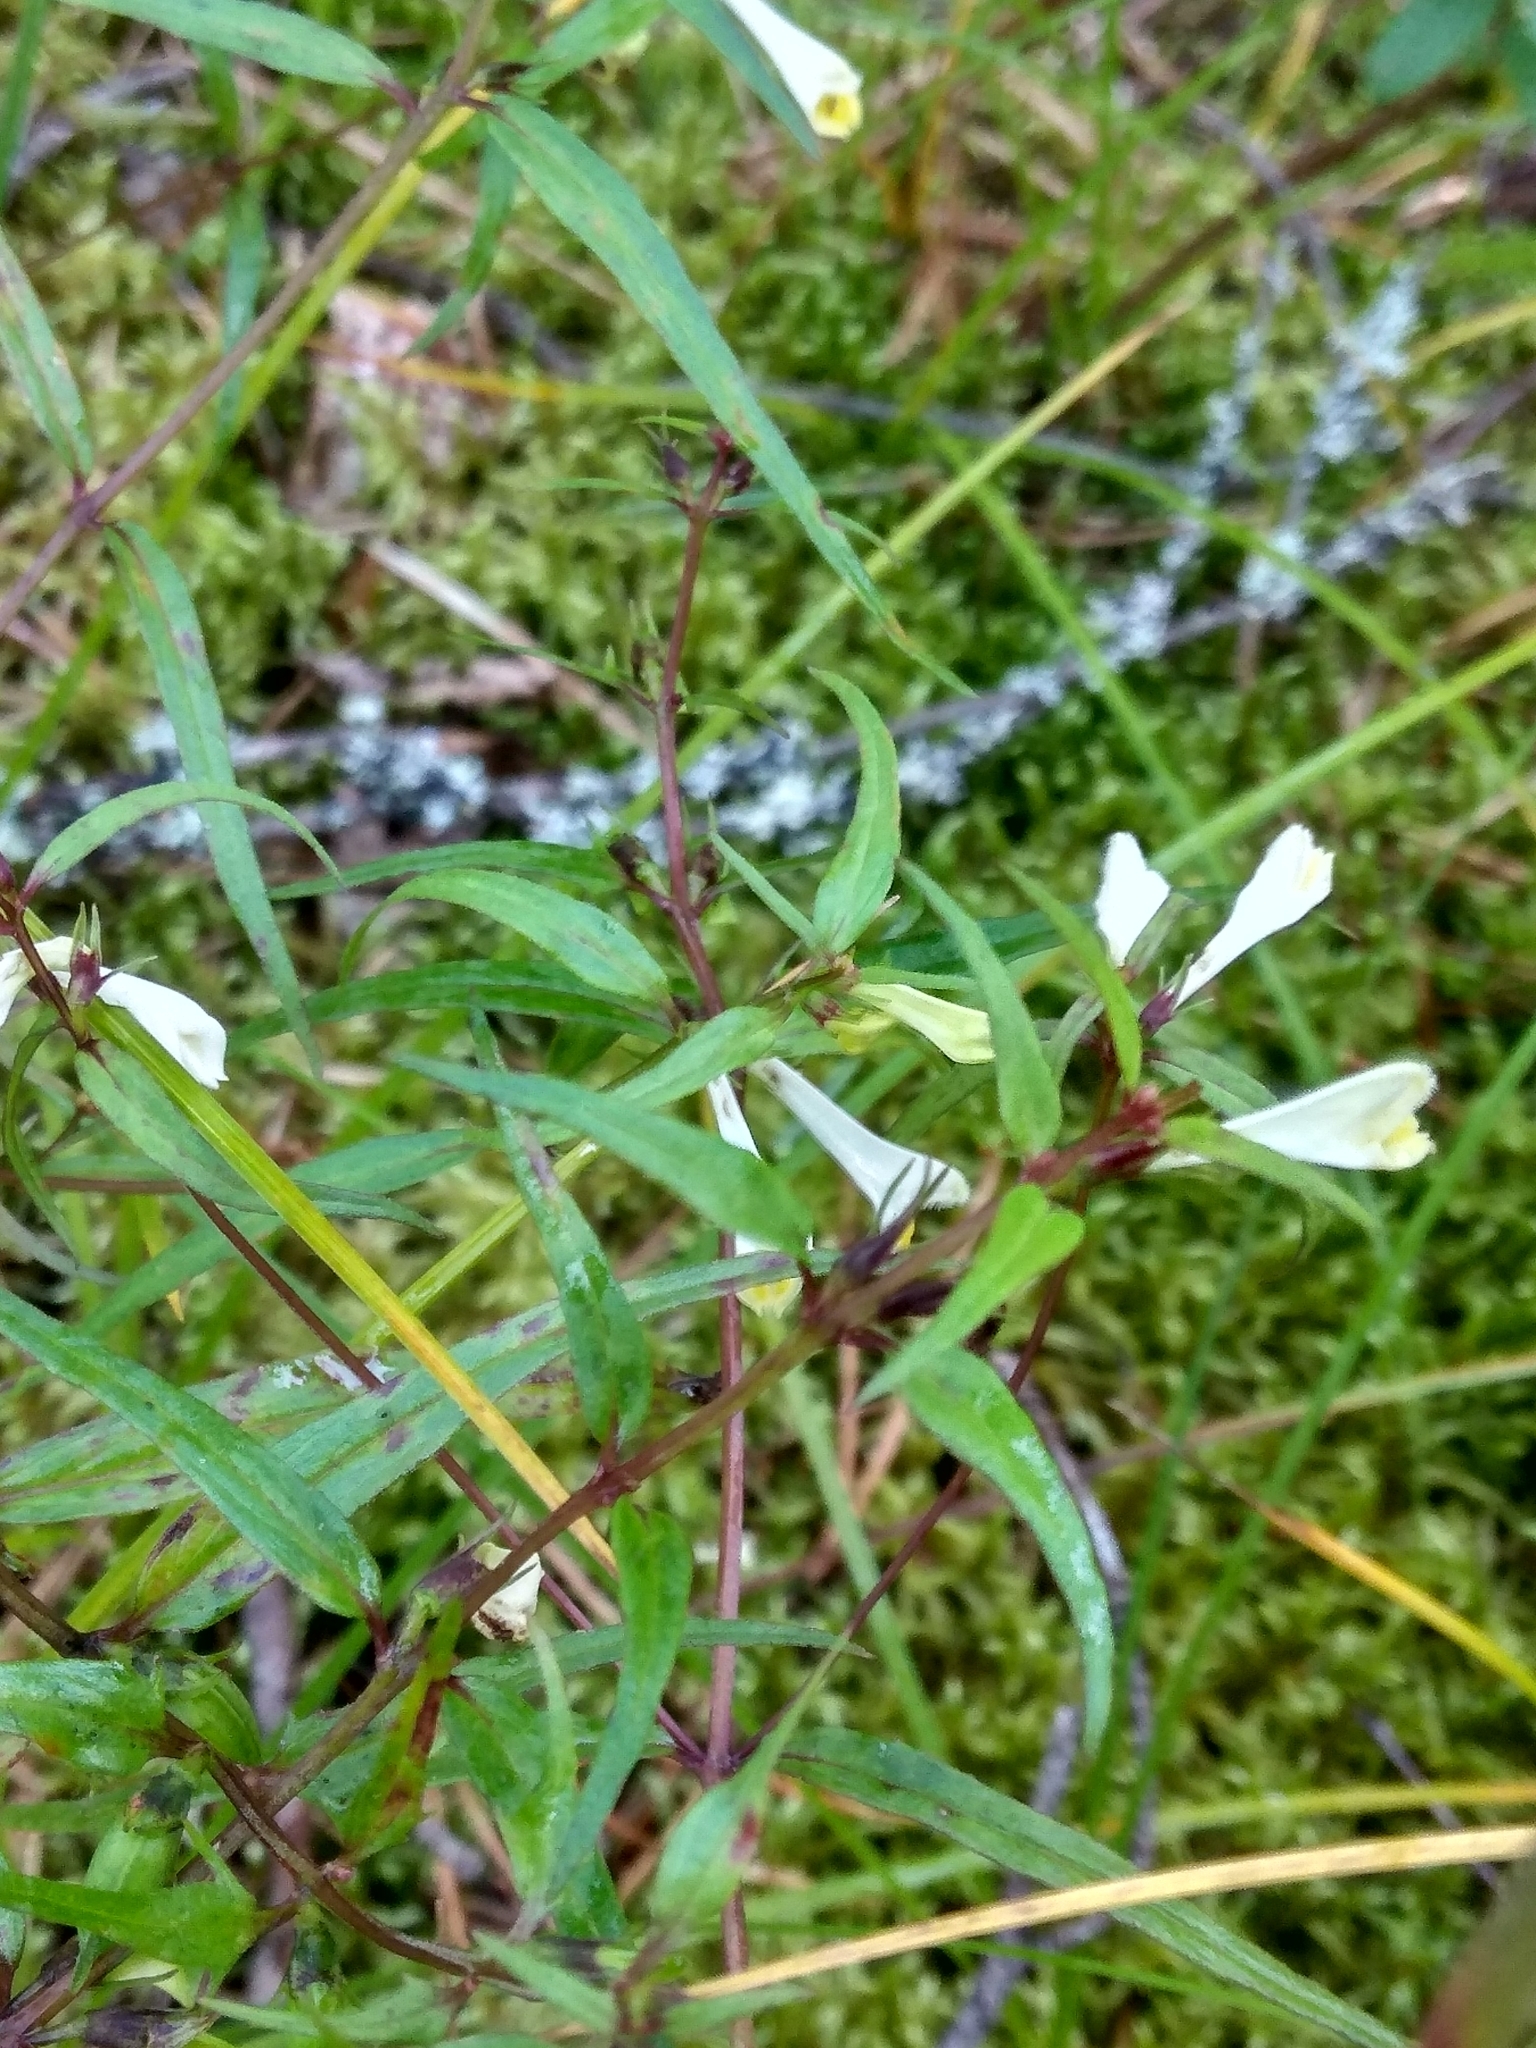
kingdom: Plantae
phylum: Tracheophyta
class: Magnoliopsida
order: Lamiales
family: Orobanchaceae
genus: Melampyrum
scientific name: Melampyrum pratense
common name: Common cow-wheat
